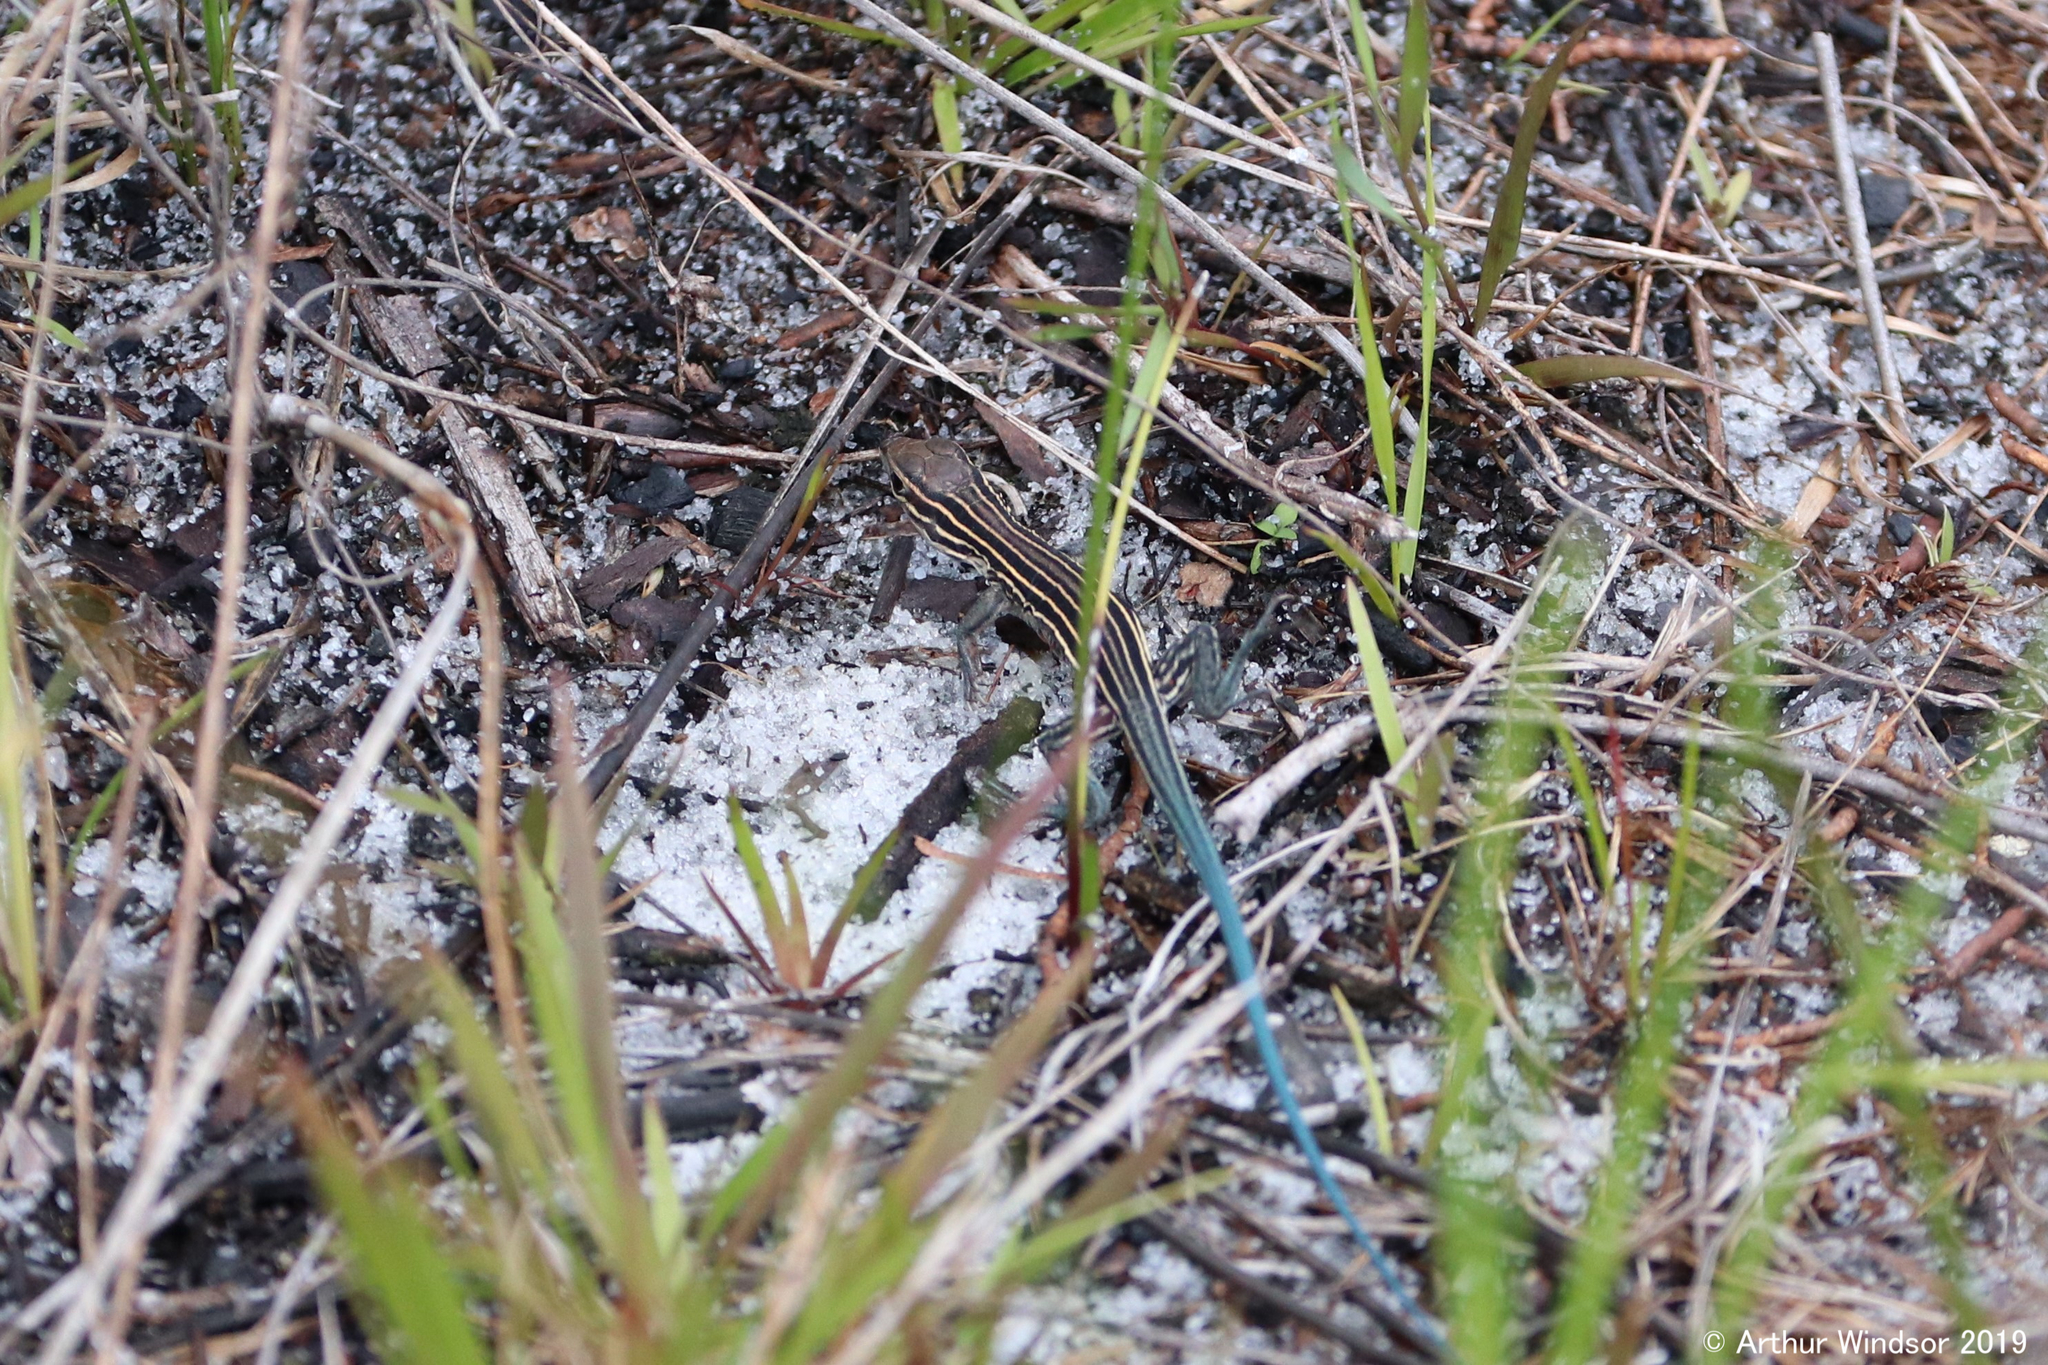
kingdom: Animalia
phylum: Chordata
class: Squamata
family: Teiidae
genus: Aspidoscelis
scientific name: Aspidoscelis sexlineatus
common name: Six-lined racerunner
